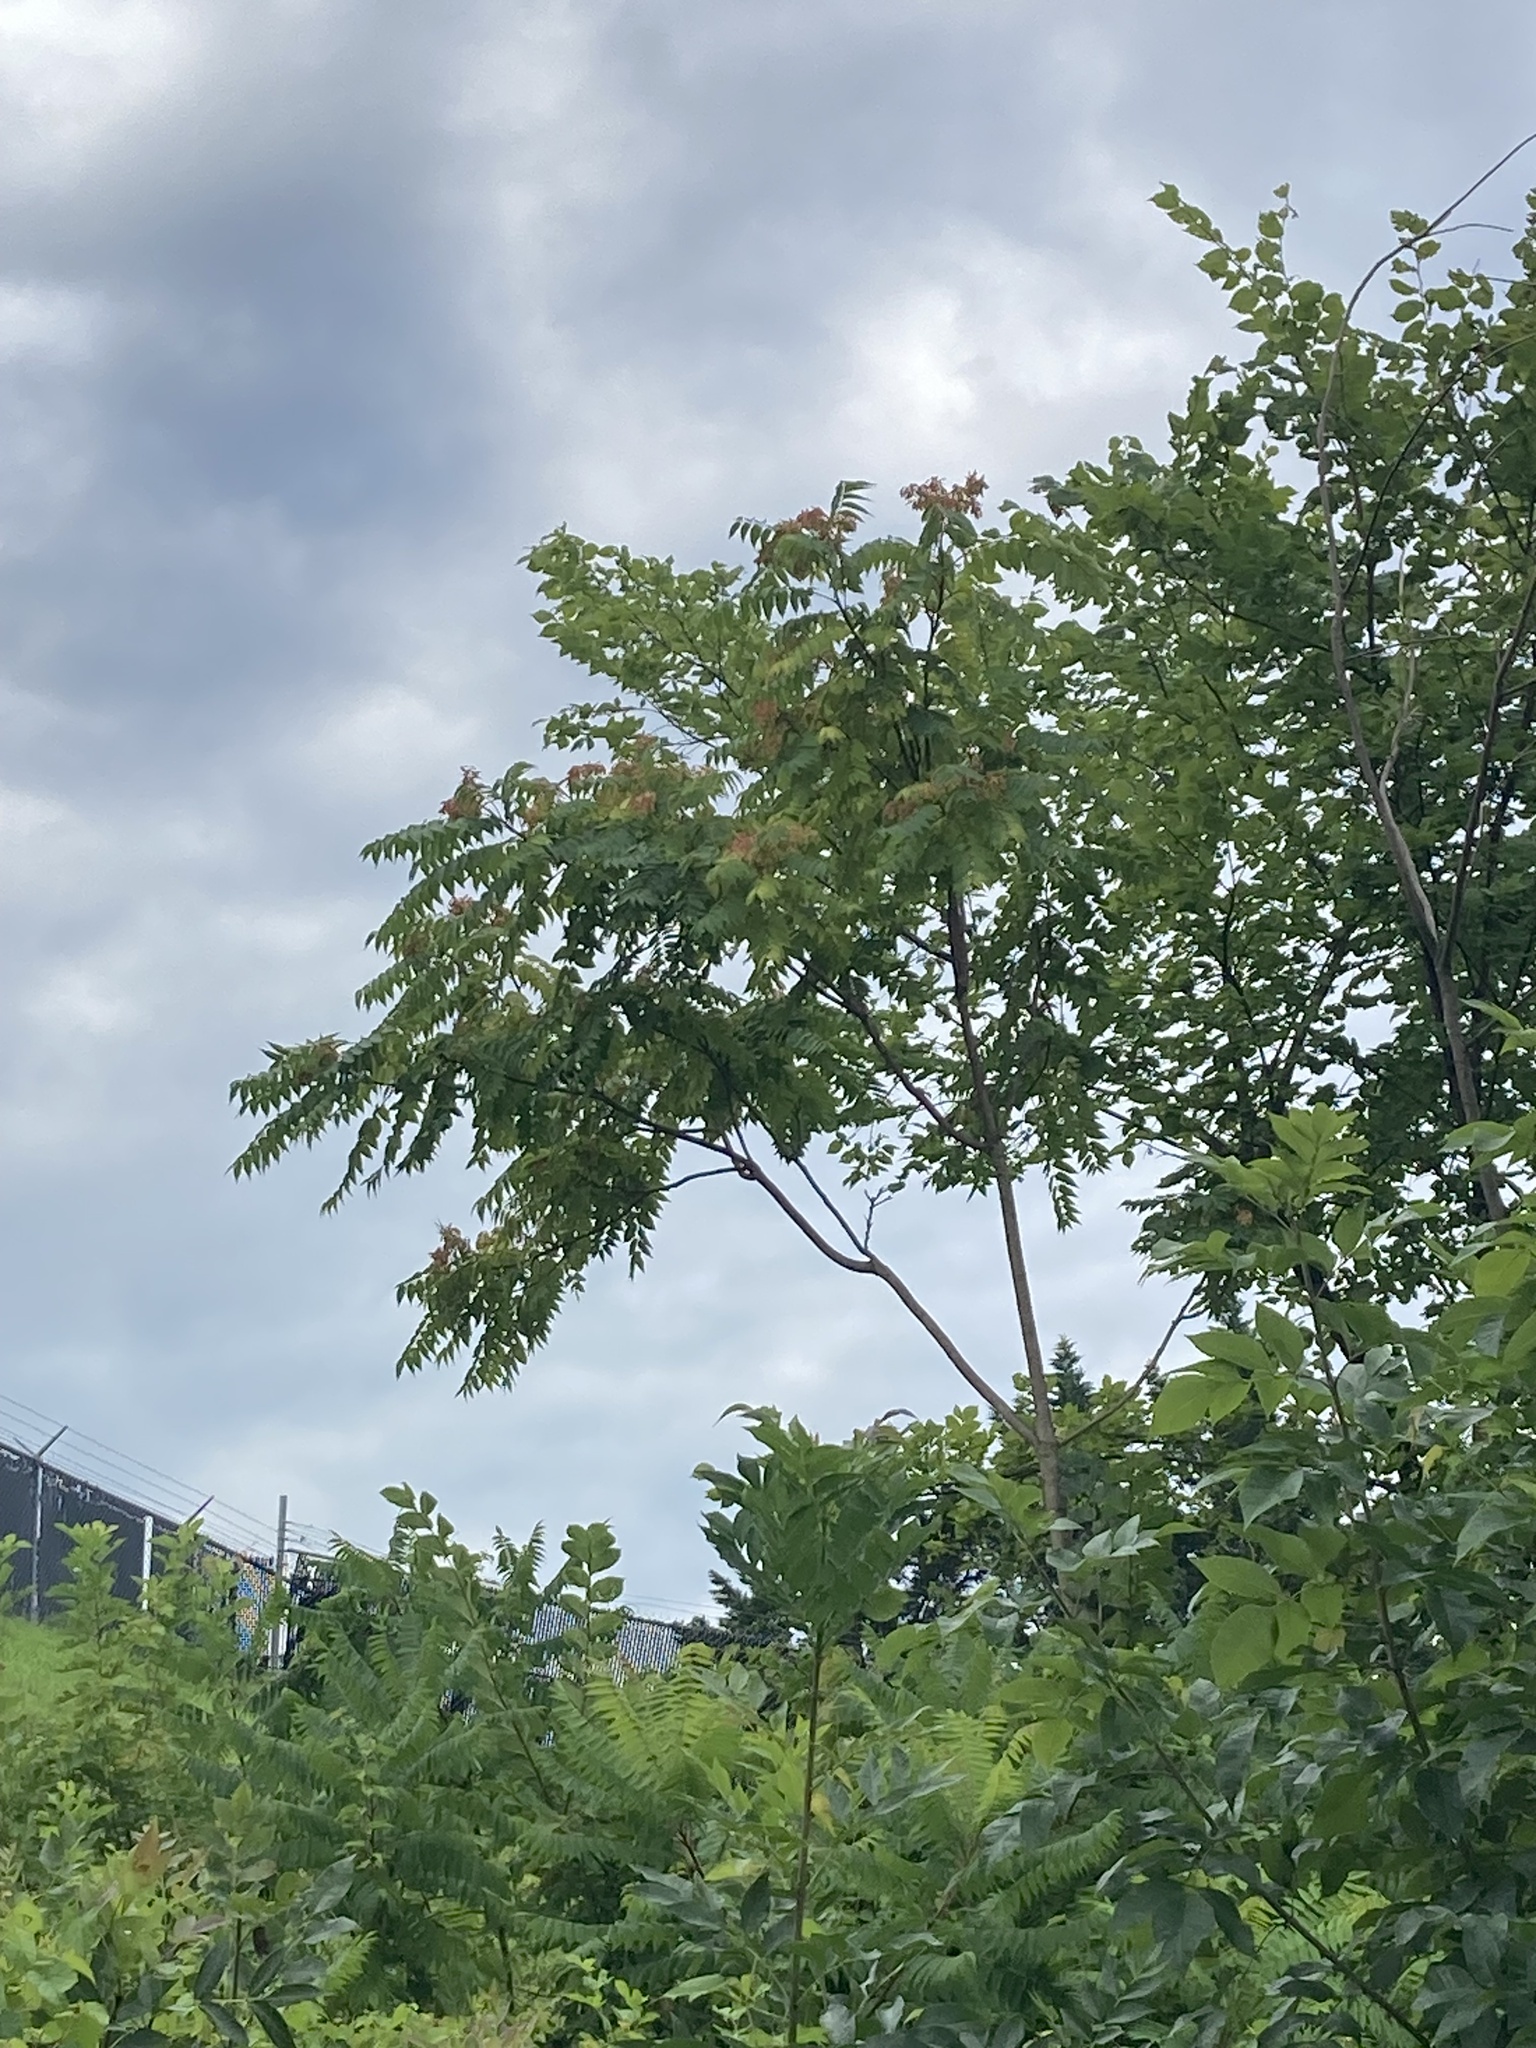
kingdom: Plantae
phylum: Tracheophyta
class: Magnoliopsida
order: Sapindales
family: Simaroubaceae
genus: Ailanthus
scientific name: Ailanthus altissima
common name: Tree-of-heaven
